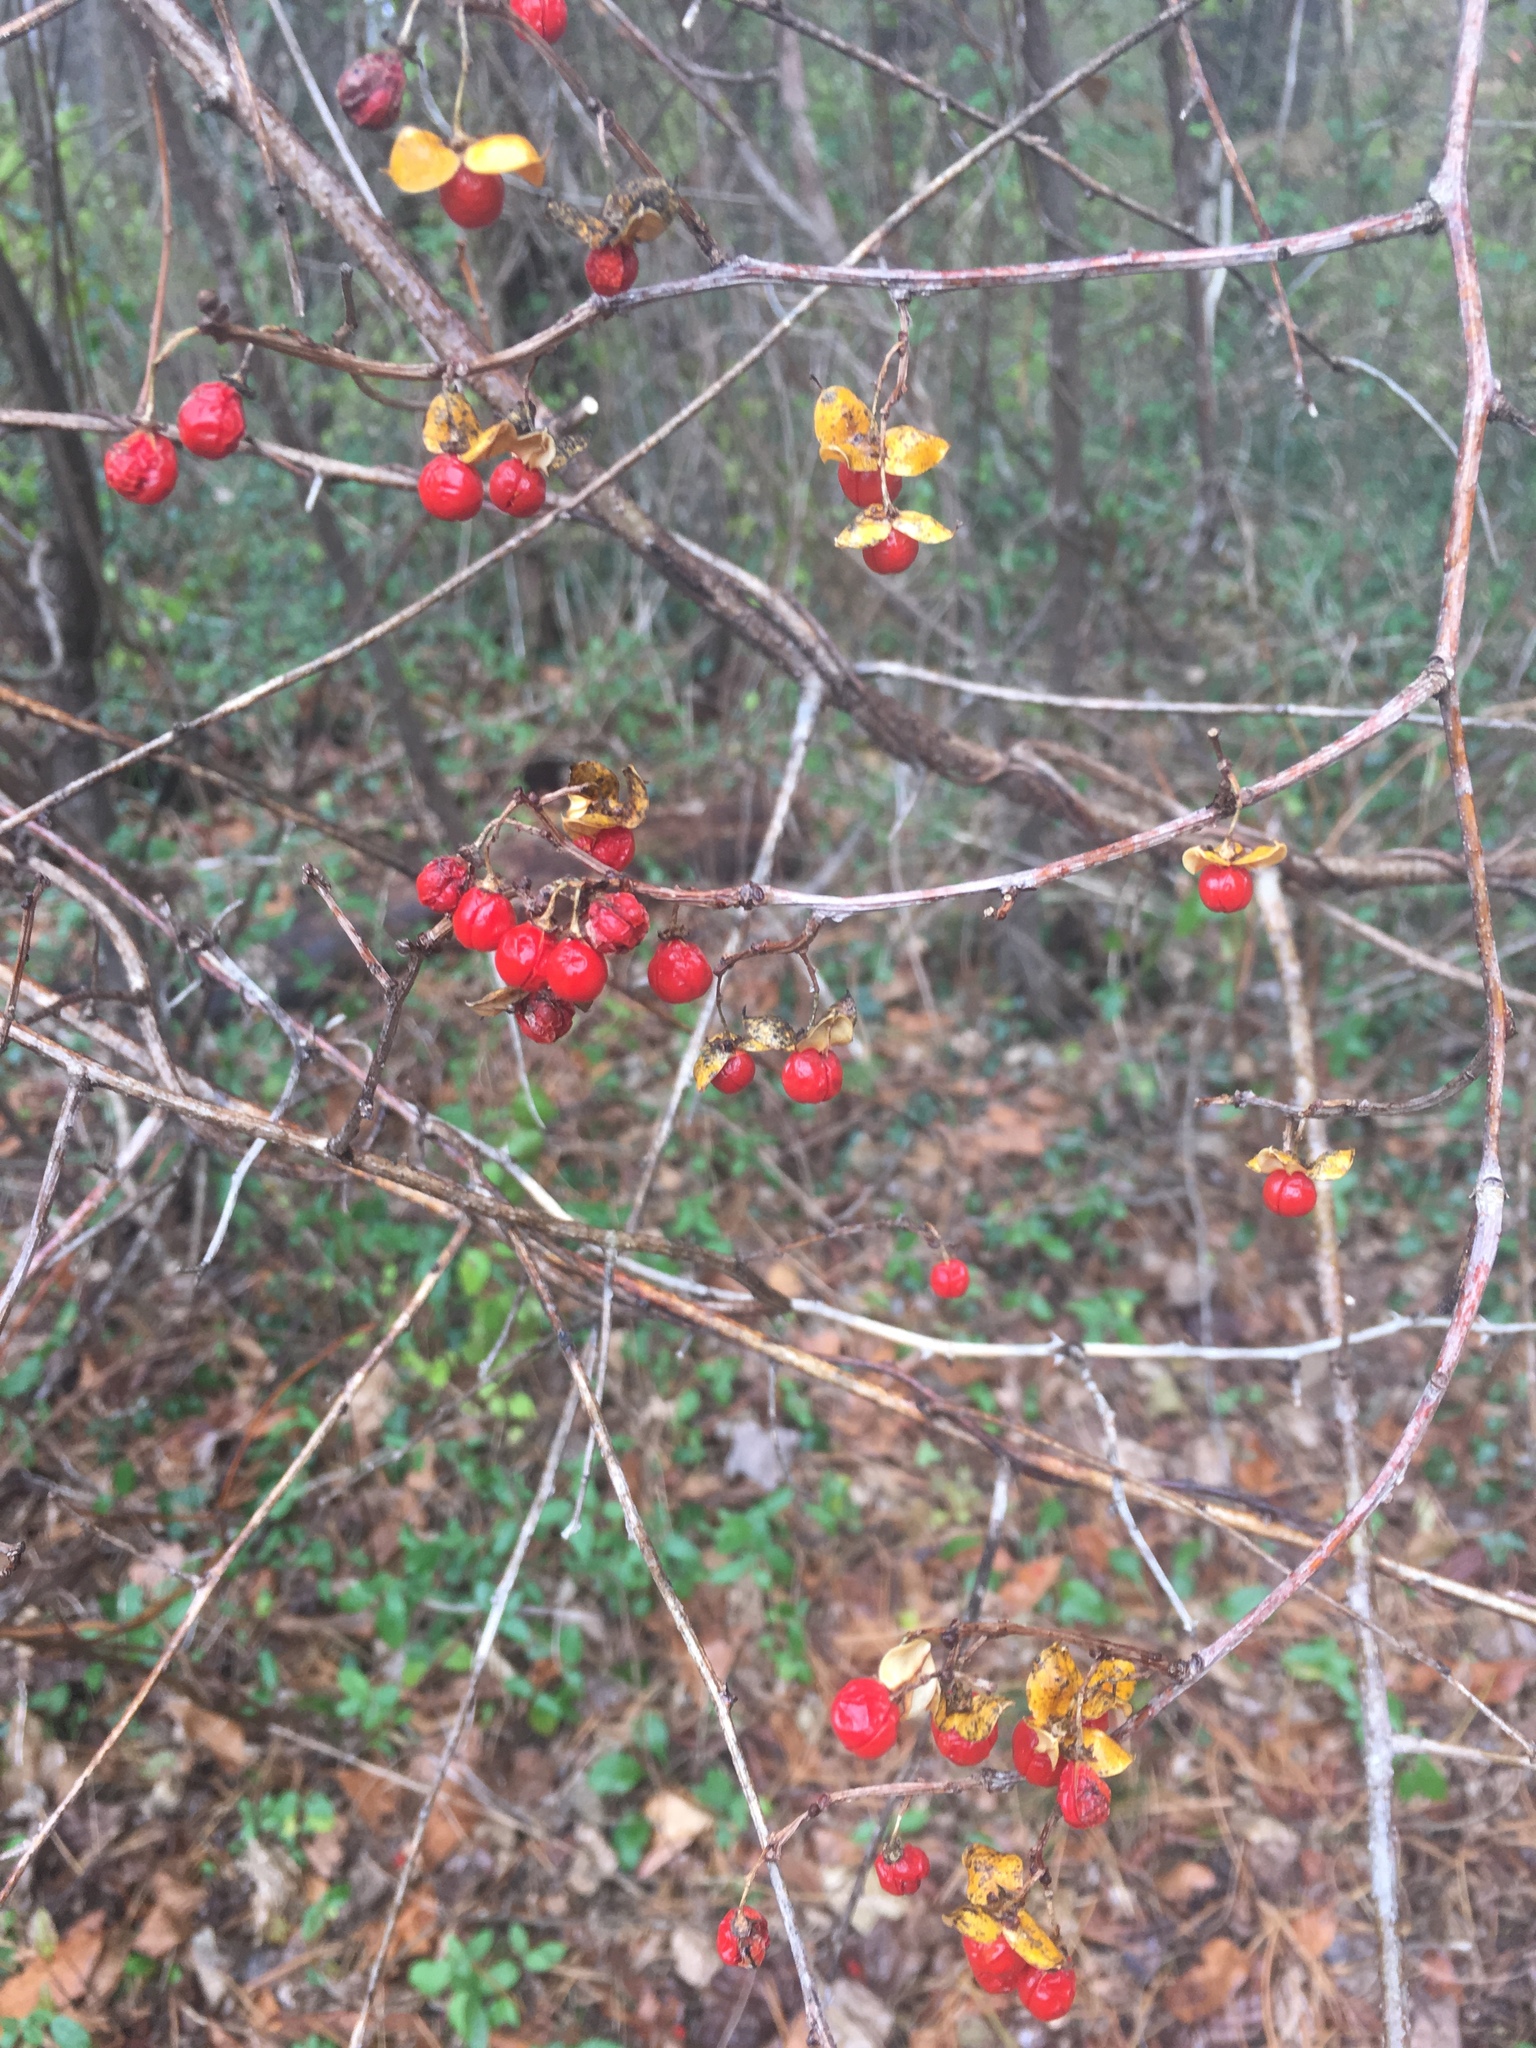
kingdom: Plantae
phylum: Tracheophyta
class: Magnoliopsida
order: Celastrales
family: Celastraceae
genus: Celastrus
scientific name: Celastrus orbiculatus
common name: Oriental bittersweet
